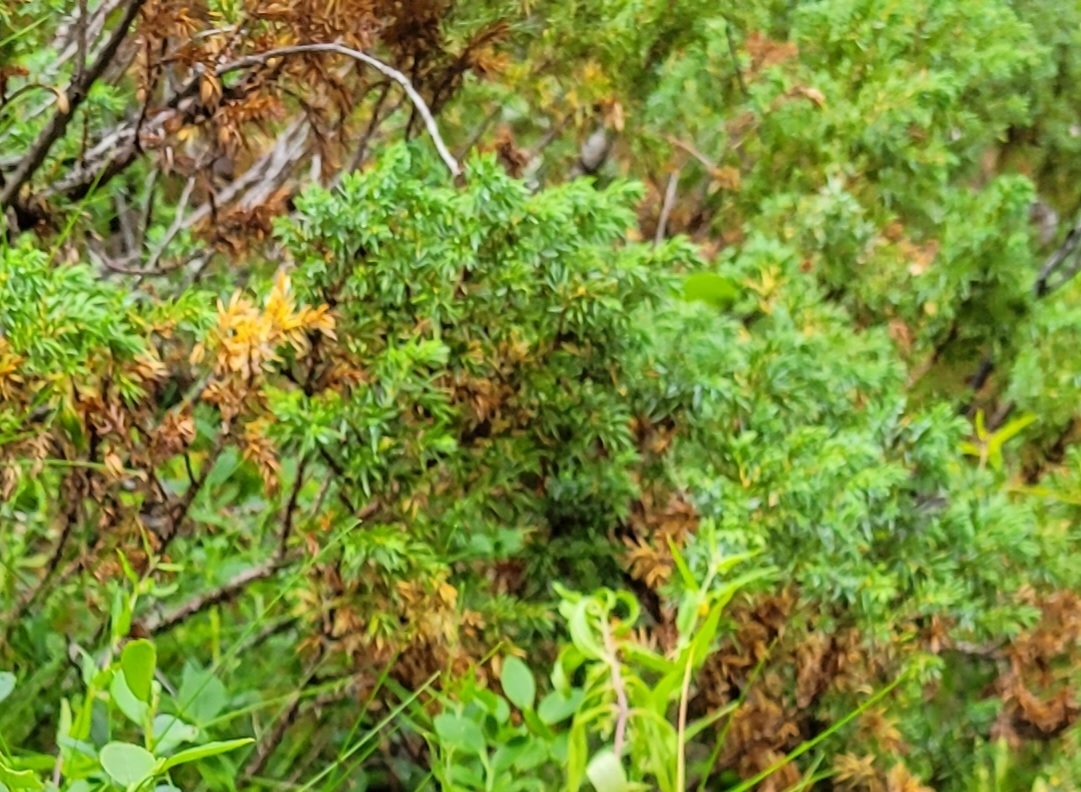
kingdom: Plantae
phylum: Tracheophyta
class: Pinopsida
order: Pinales
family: Cupressaceae
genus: Juniperus
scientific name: Juniperus communis
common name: Common juniper
